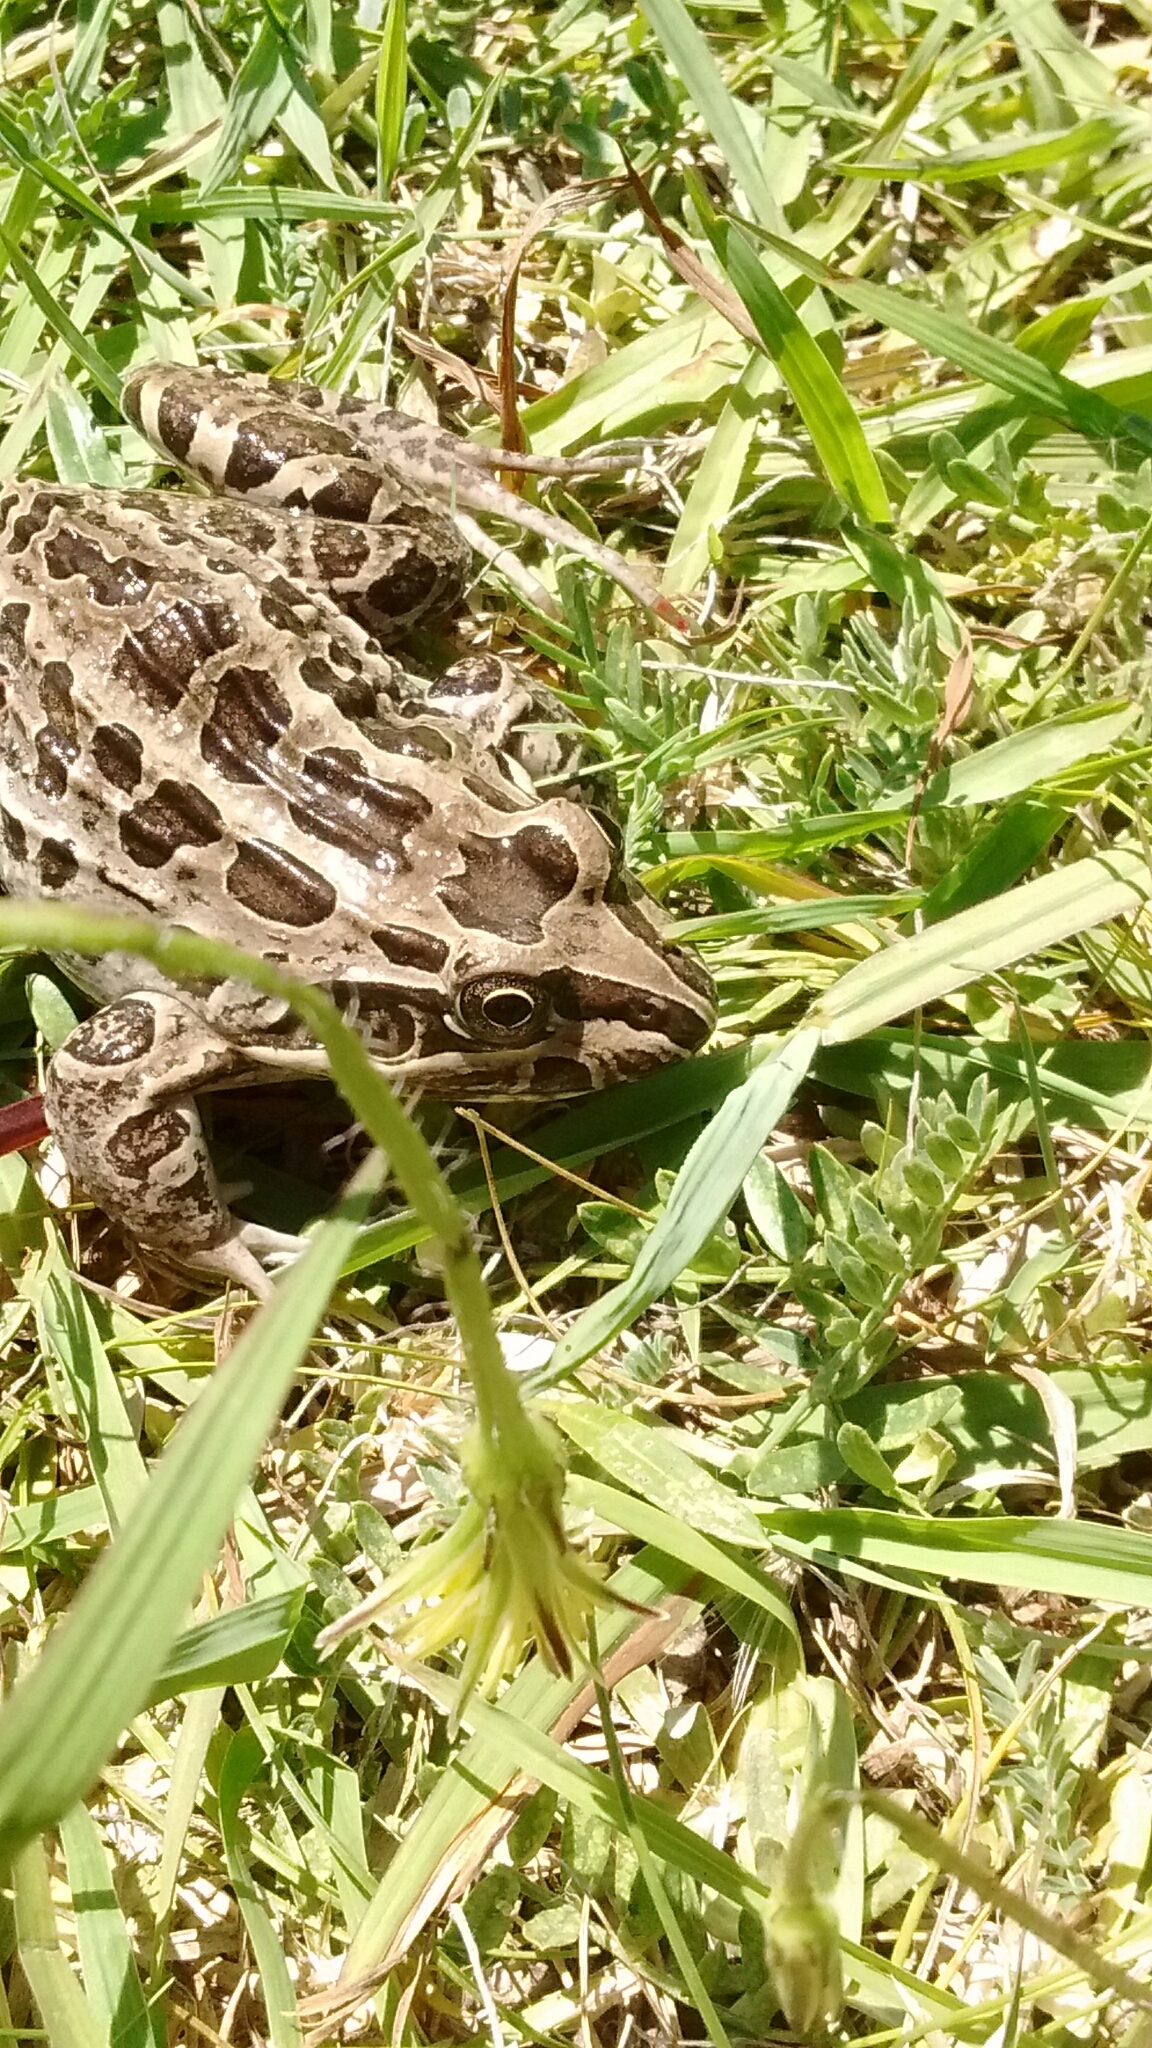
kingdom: Animalia
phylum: Chordata
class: Amphibia
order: Anura
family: Leptodactylidae
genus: Leptodactylus
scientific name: Leptodactylus luctator
